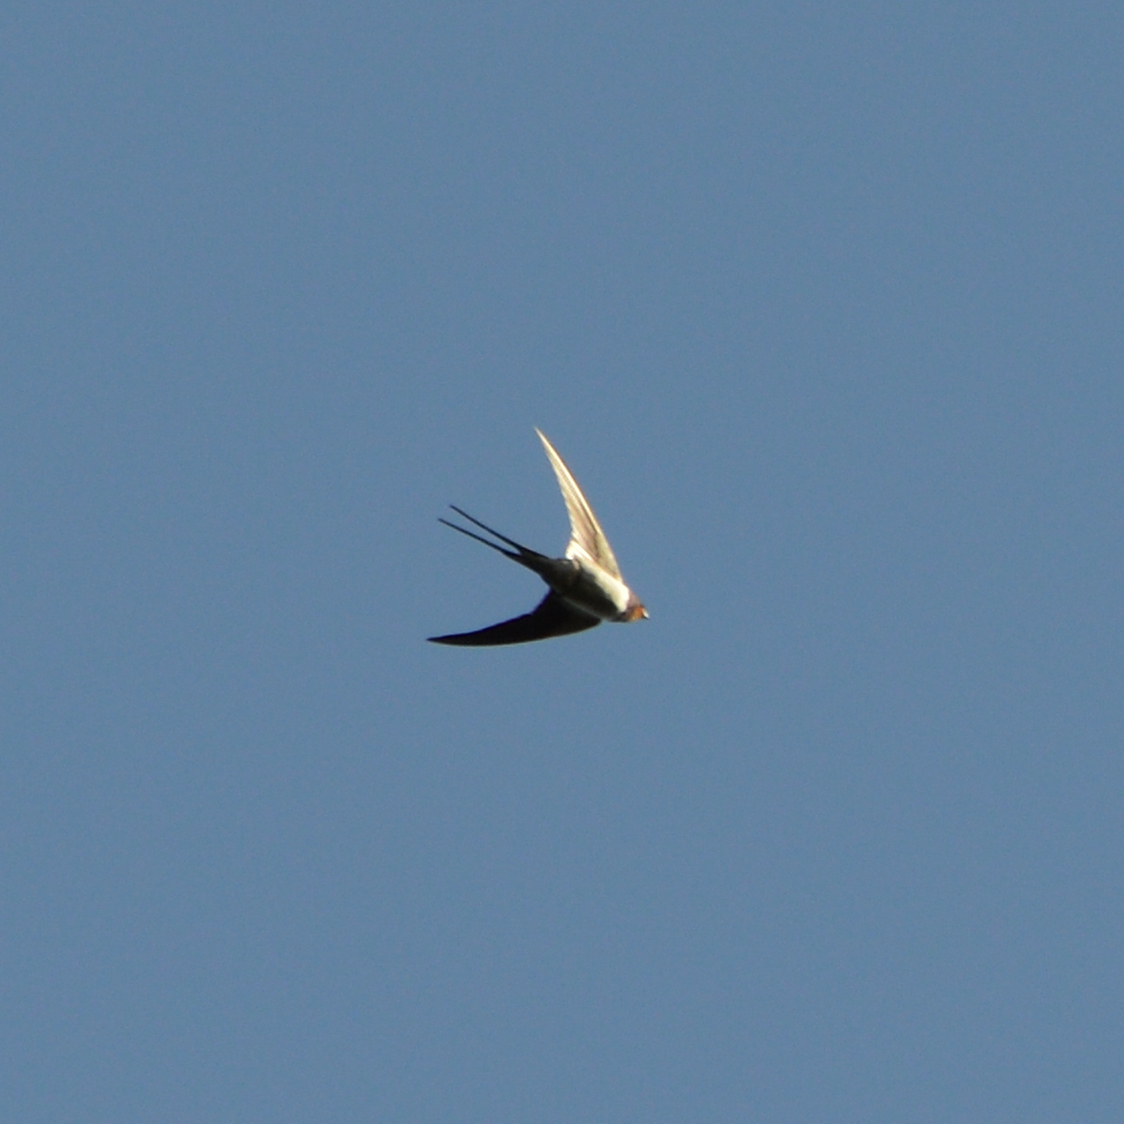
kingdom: Animalia
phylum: Chordata
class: Aves
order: Passeriformes
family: Hirundinidae
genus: Hirundo
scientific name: Hirundo rustica
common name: Barn swallow
